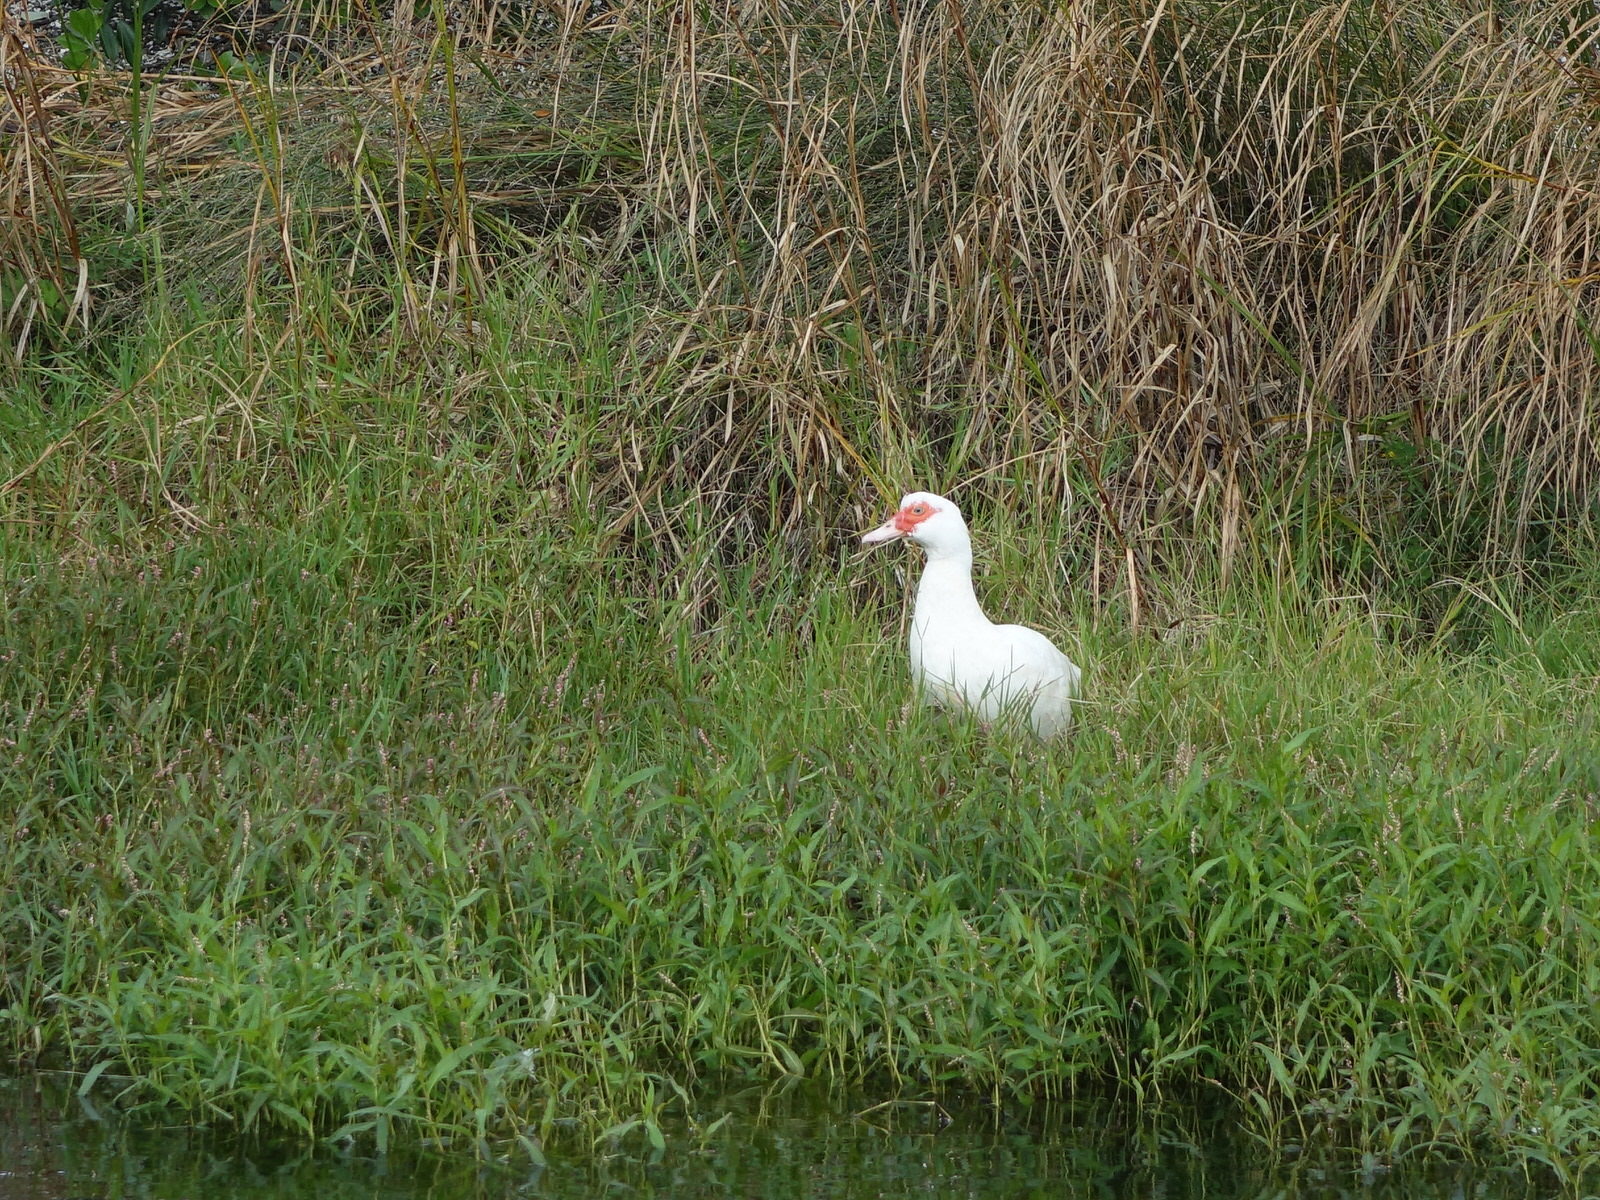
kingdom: Animalia
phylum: Chordata
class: Aves
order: Anseriformes
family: Anatidae
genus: Anas
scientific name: Anas platyrhynchos
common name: Mallard
